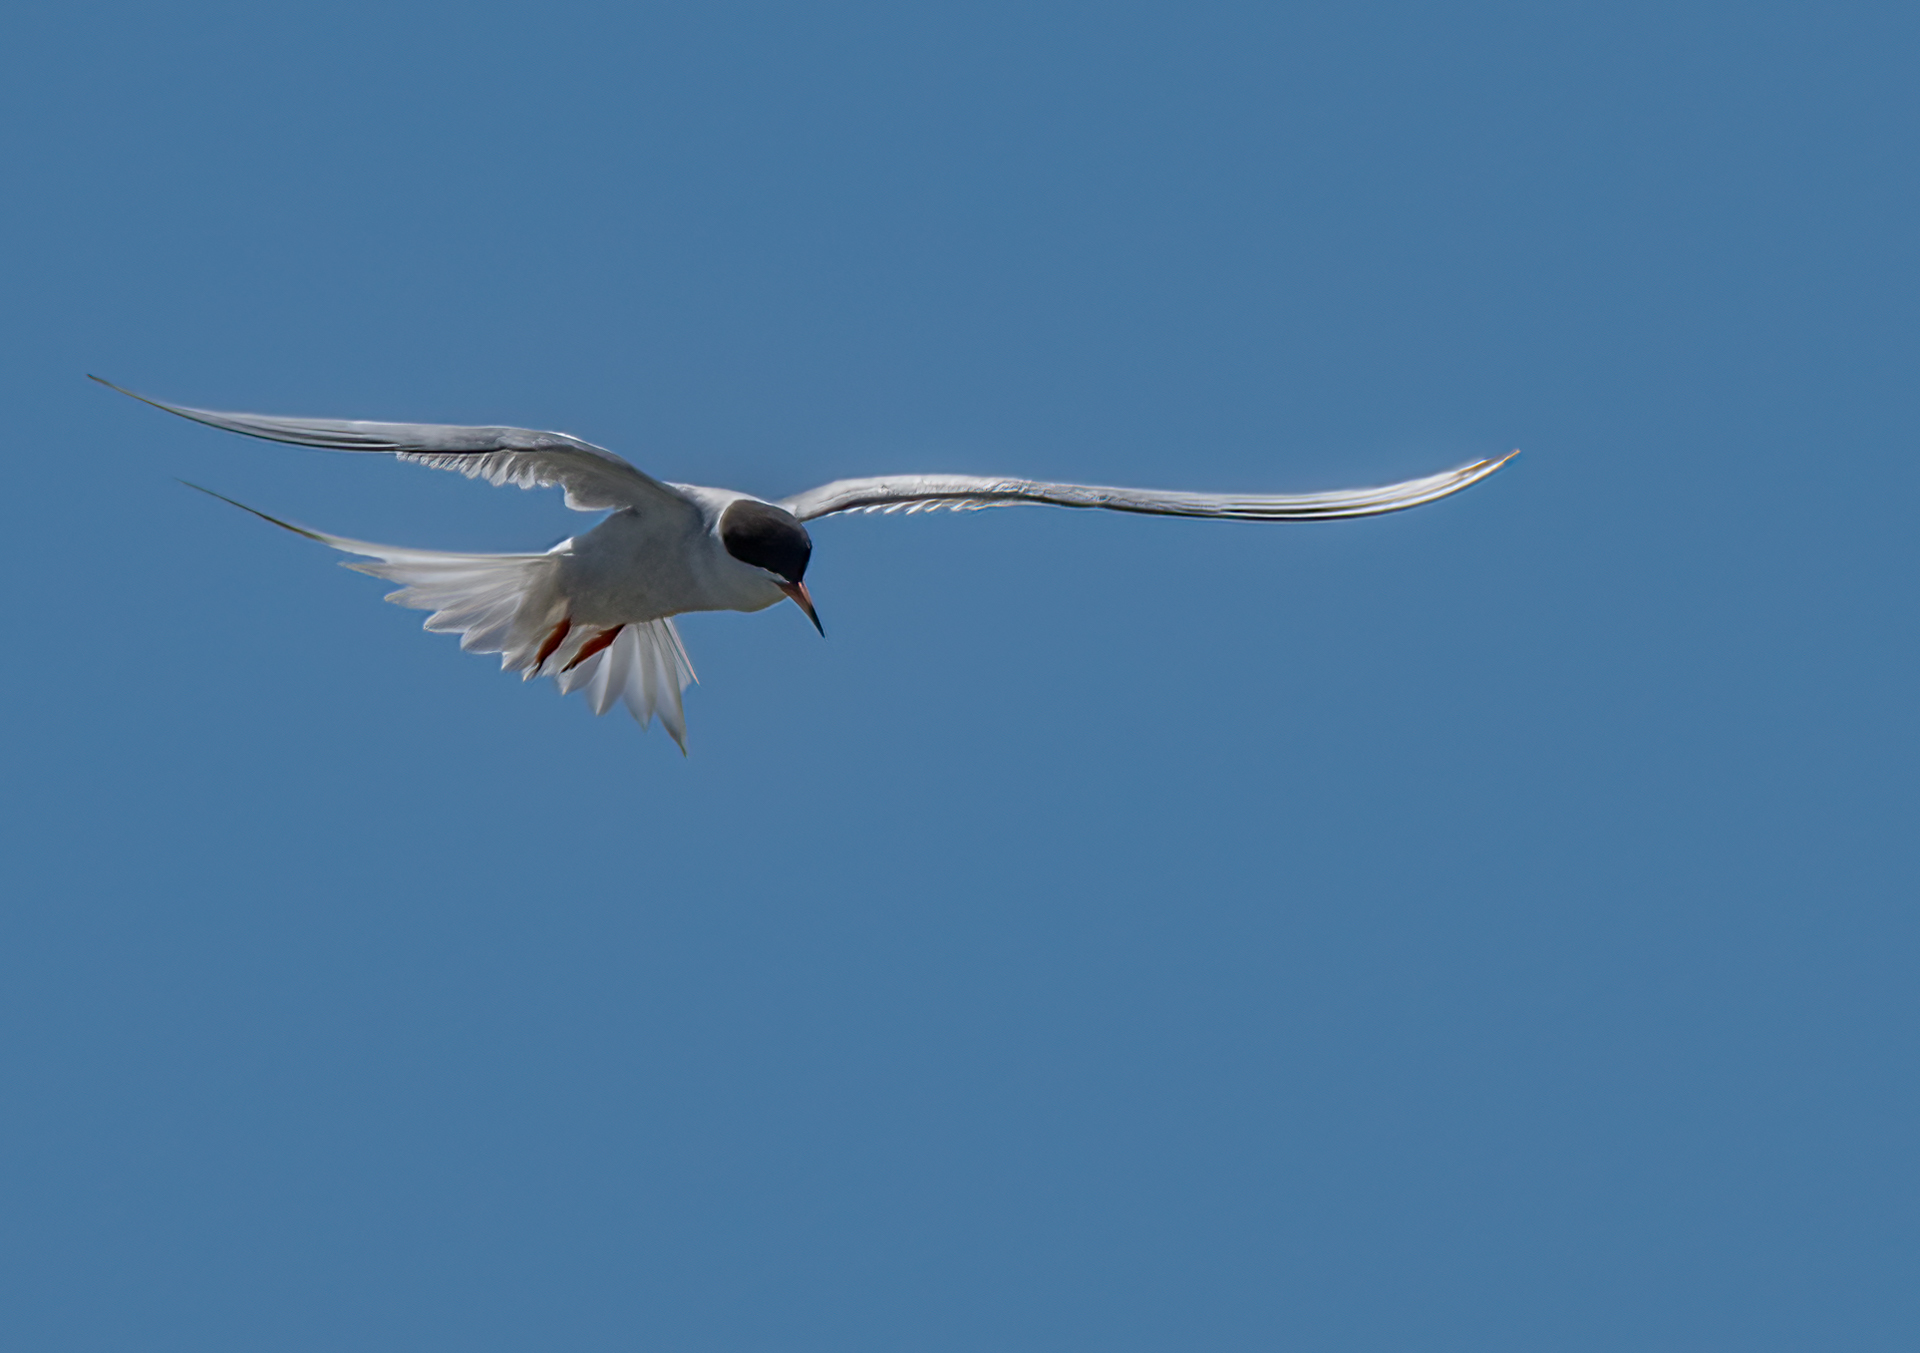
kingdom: Animalia
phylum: Chordata
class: Aves
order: Charadriiformes
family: Laridae
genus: Sterna
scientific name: Sterna forsteri
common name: Forster's tern
